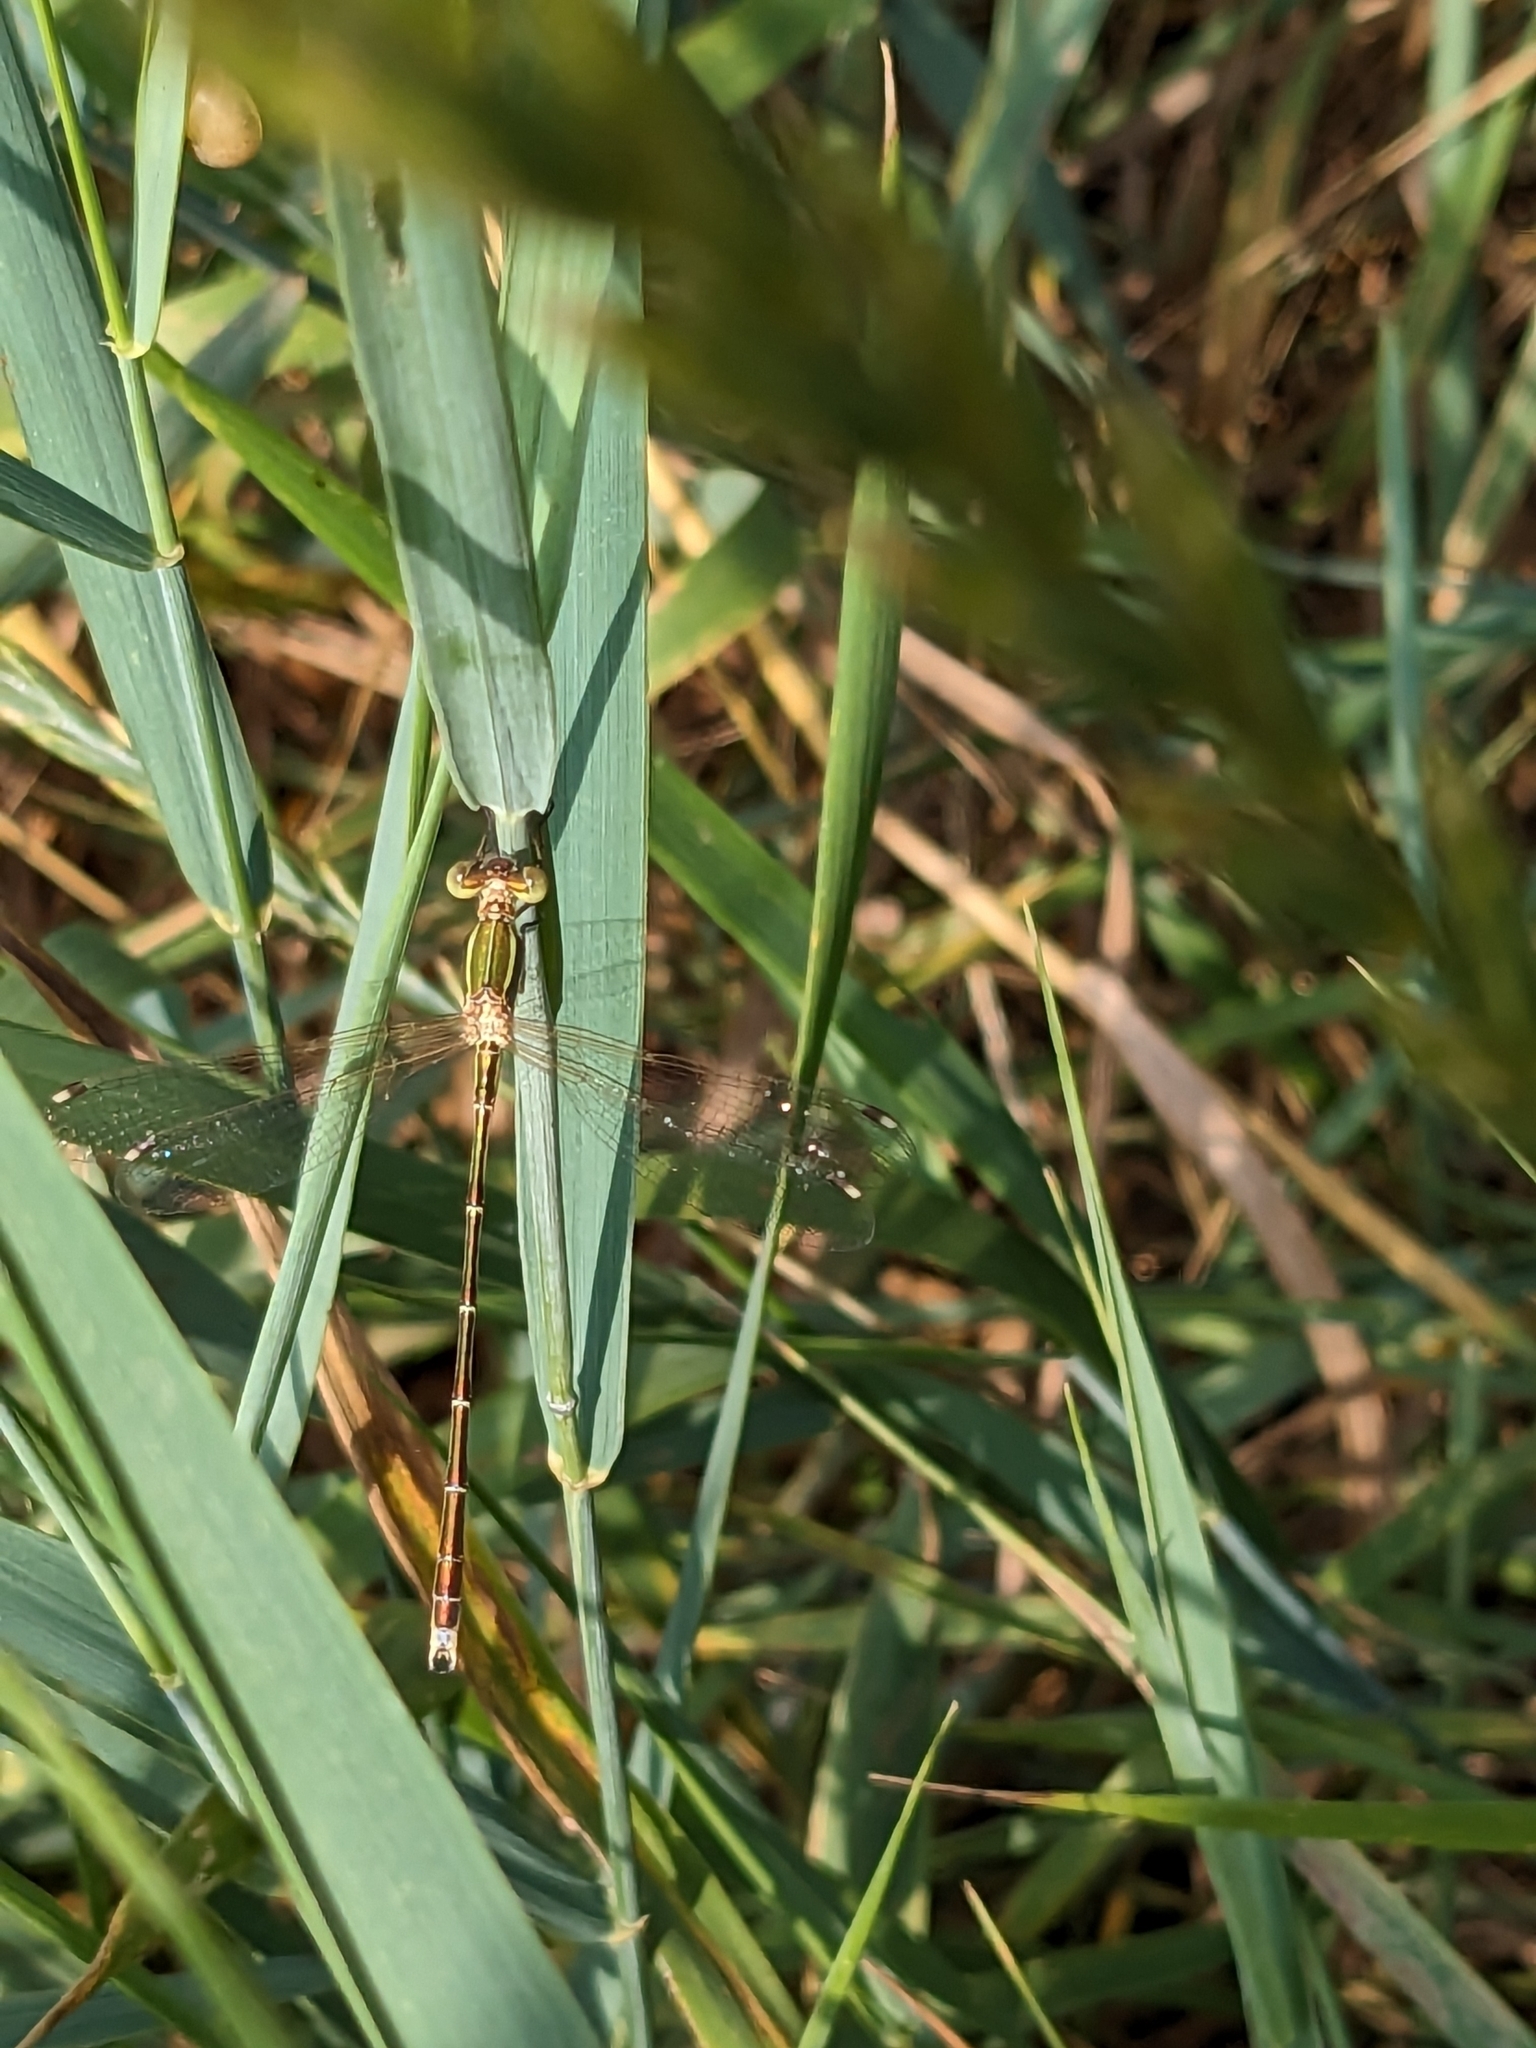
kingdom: Animalia
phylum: Arthropoda
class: Insecta
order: Odonata
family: Lestidae
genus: Lestes
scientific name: Lestes barbarus
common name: Migrant spreadwing
